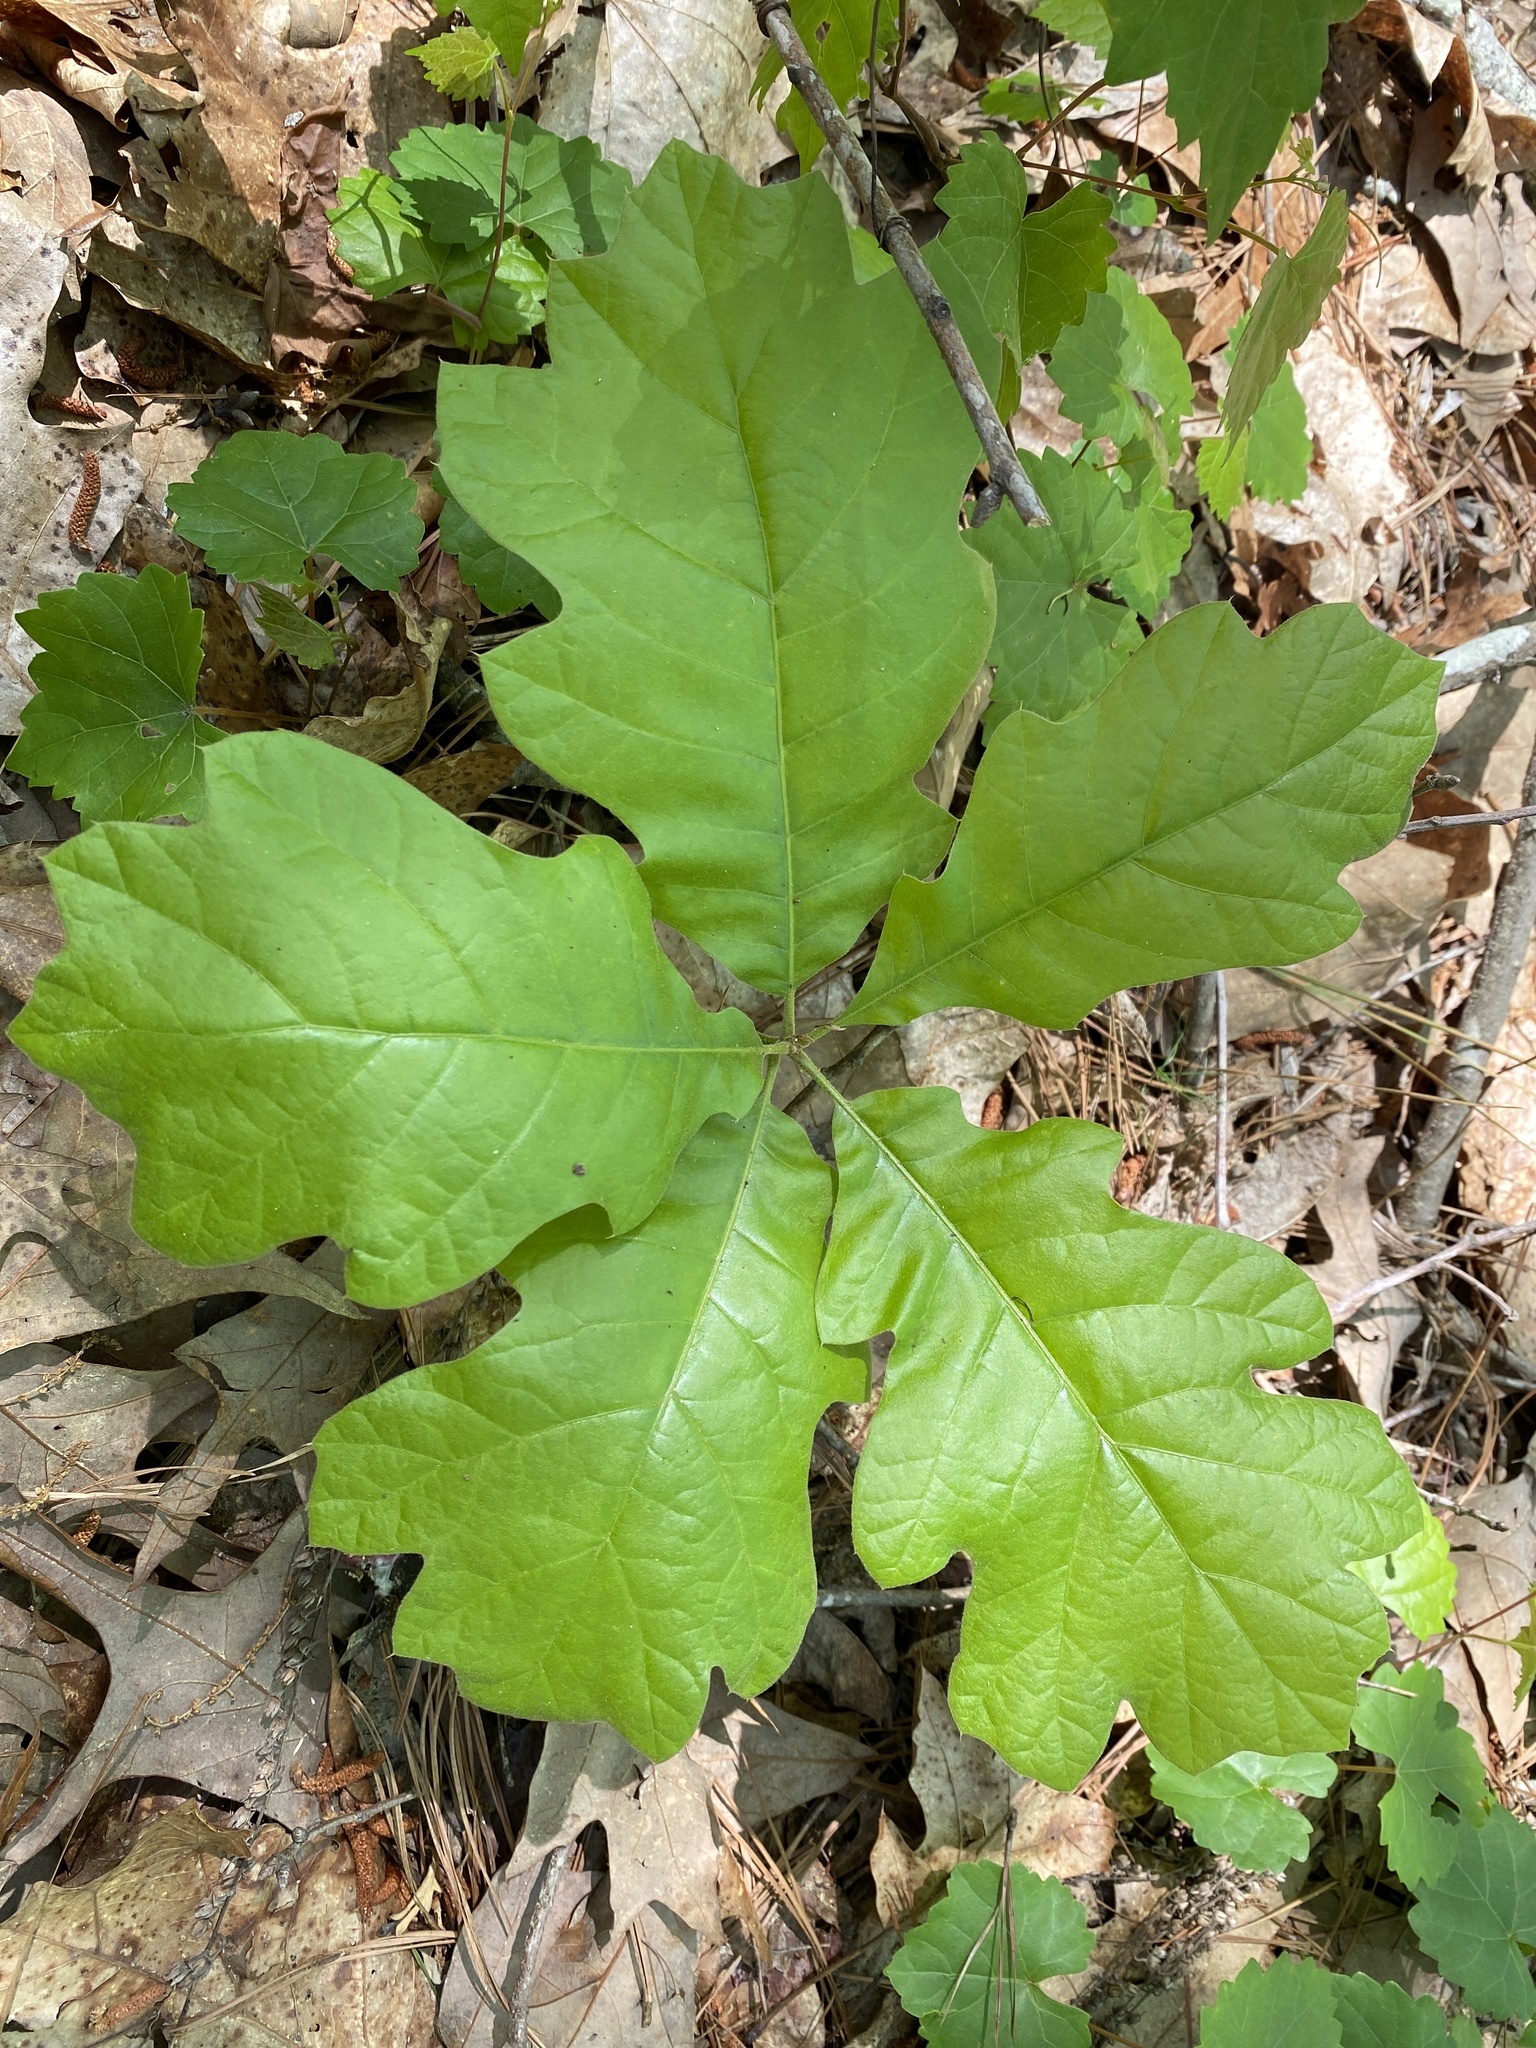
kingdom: Plantae
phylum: Tracheophyta
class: Magnoliopsida
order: Fagales
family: Fagaceae
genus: Quercus
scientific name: Quercus velutina
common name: Black oak
